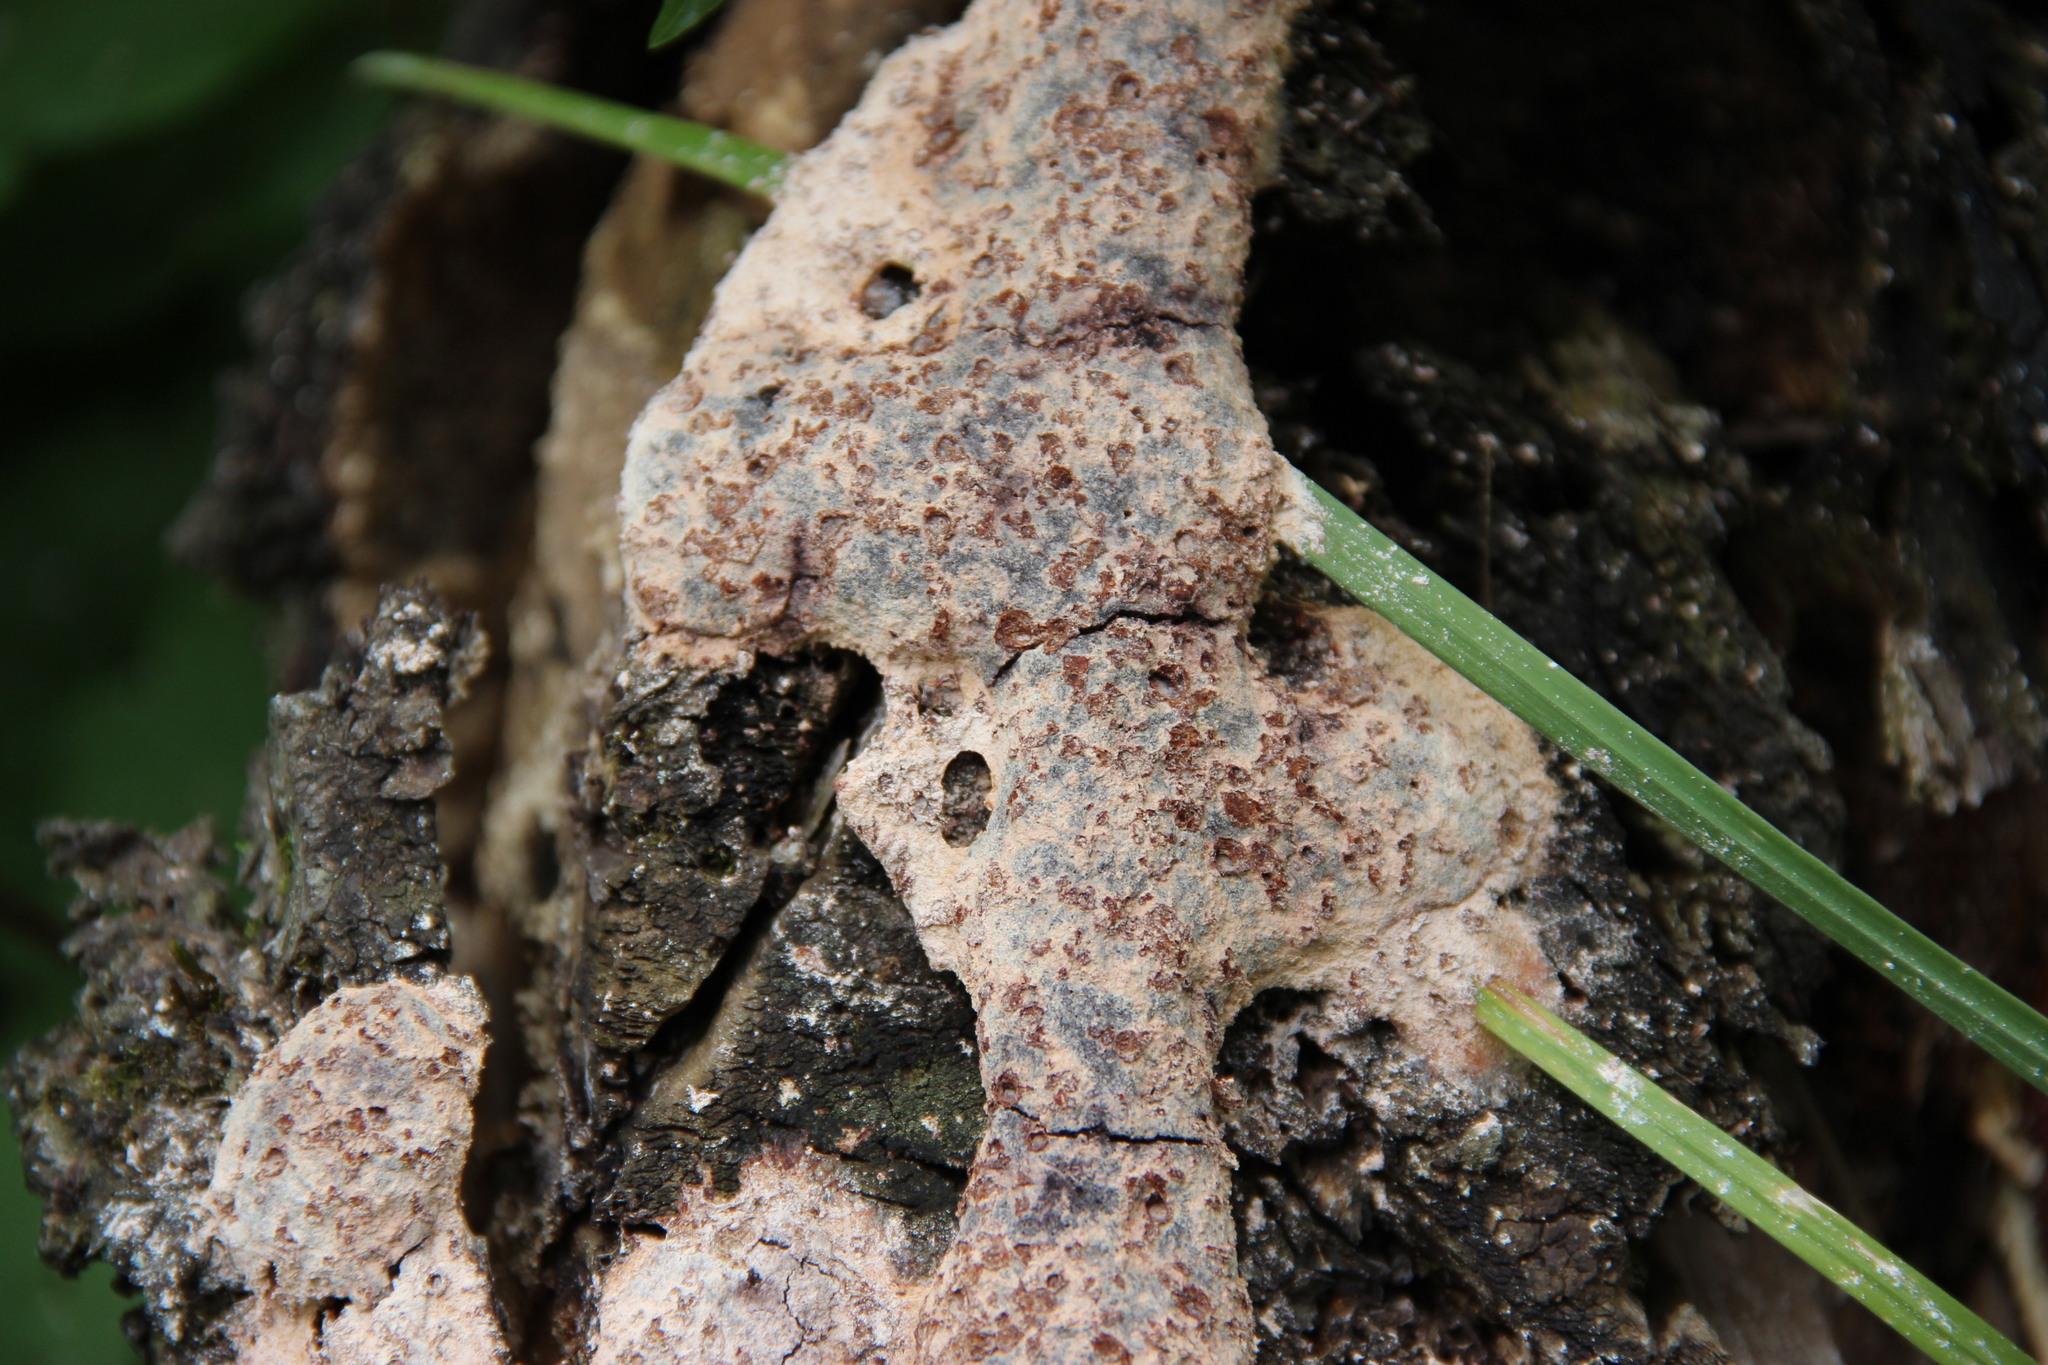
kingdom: Protozoa
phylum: Mycetozoa
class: Myxomycetes
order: Physarales
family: Physaraceae
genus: Fuligo
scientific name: Fuligo septica
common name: Dog vomit slime mold
